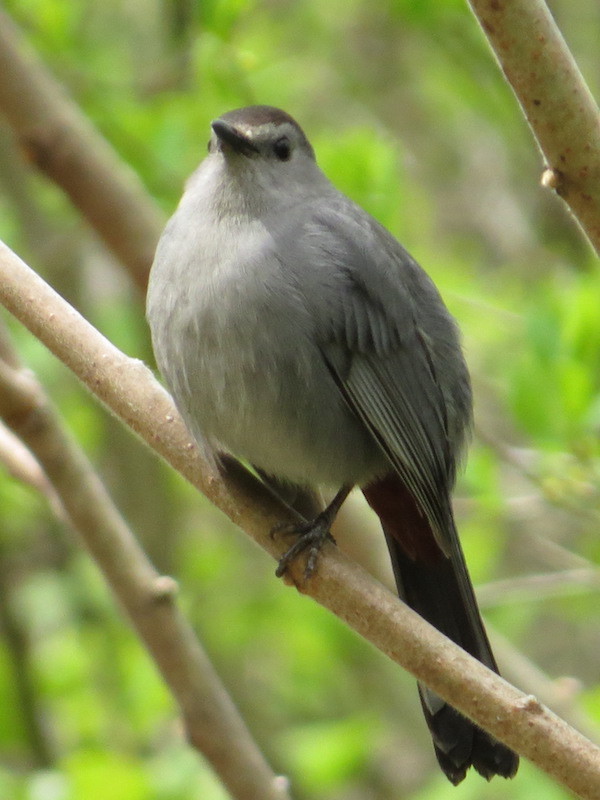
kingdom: Animalia
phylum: Chordata
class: Aves
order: Passeriformes
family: Mimidae
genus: Dumetella
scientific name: Dumetella carolinensis
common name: Gray catbird
